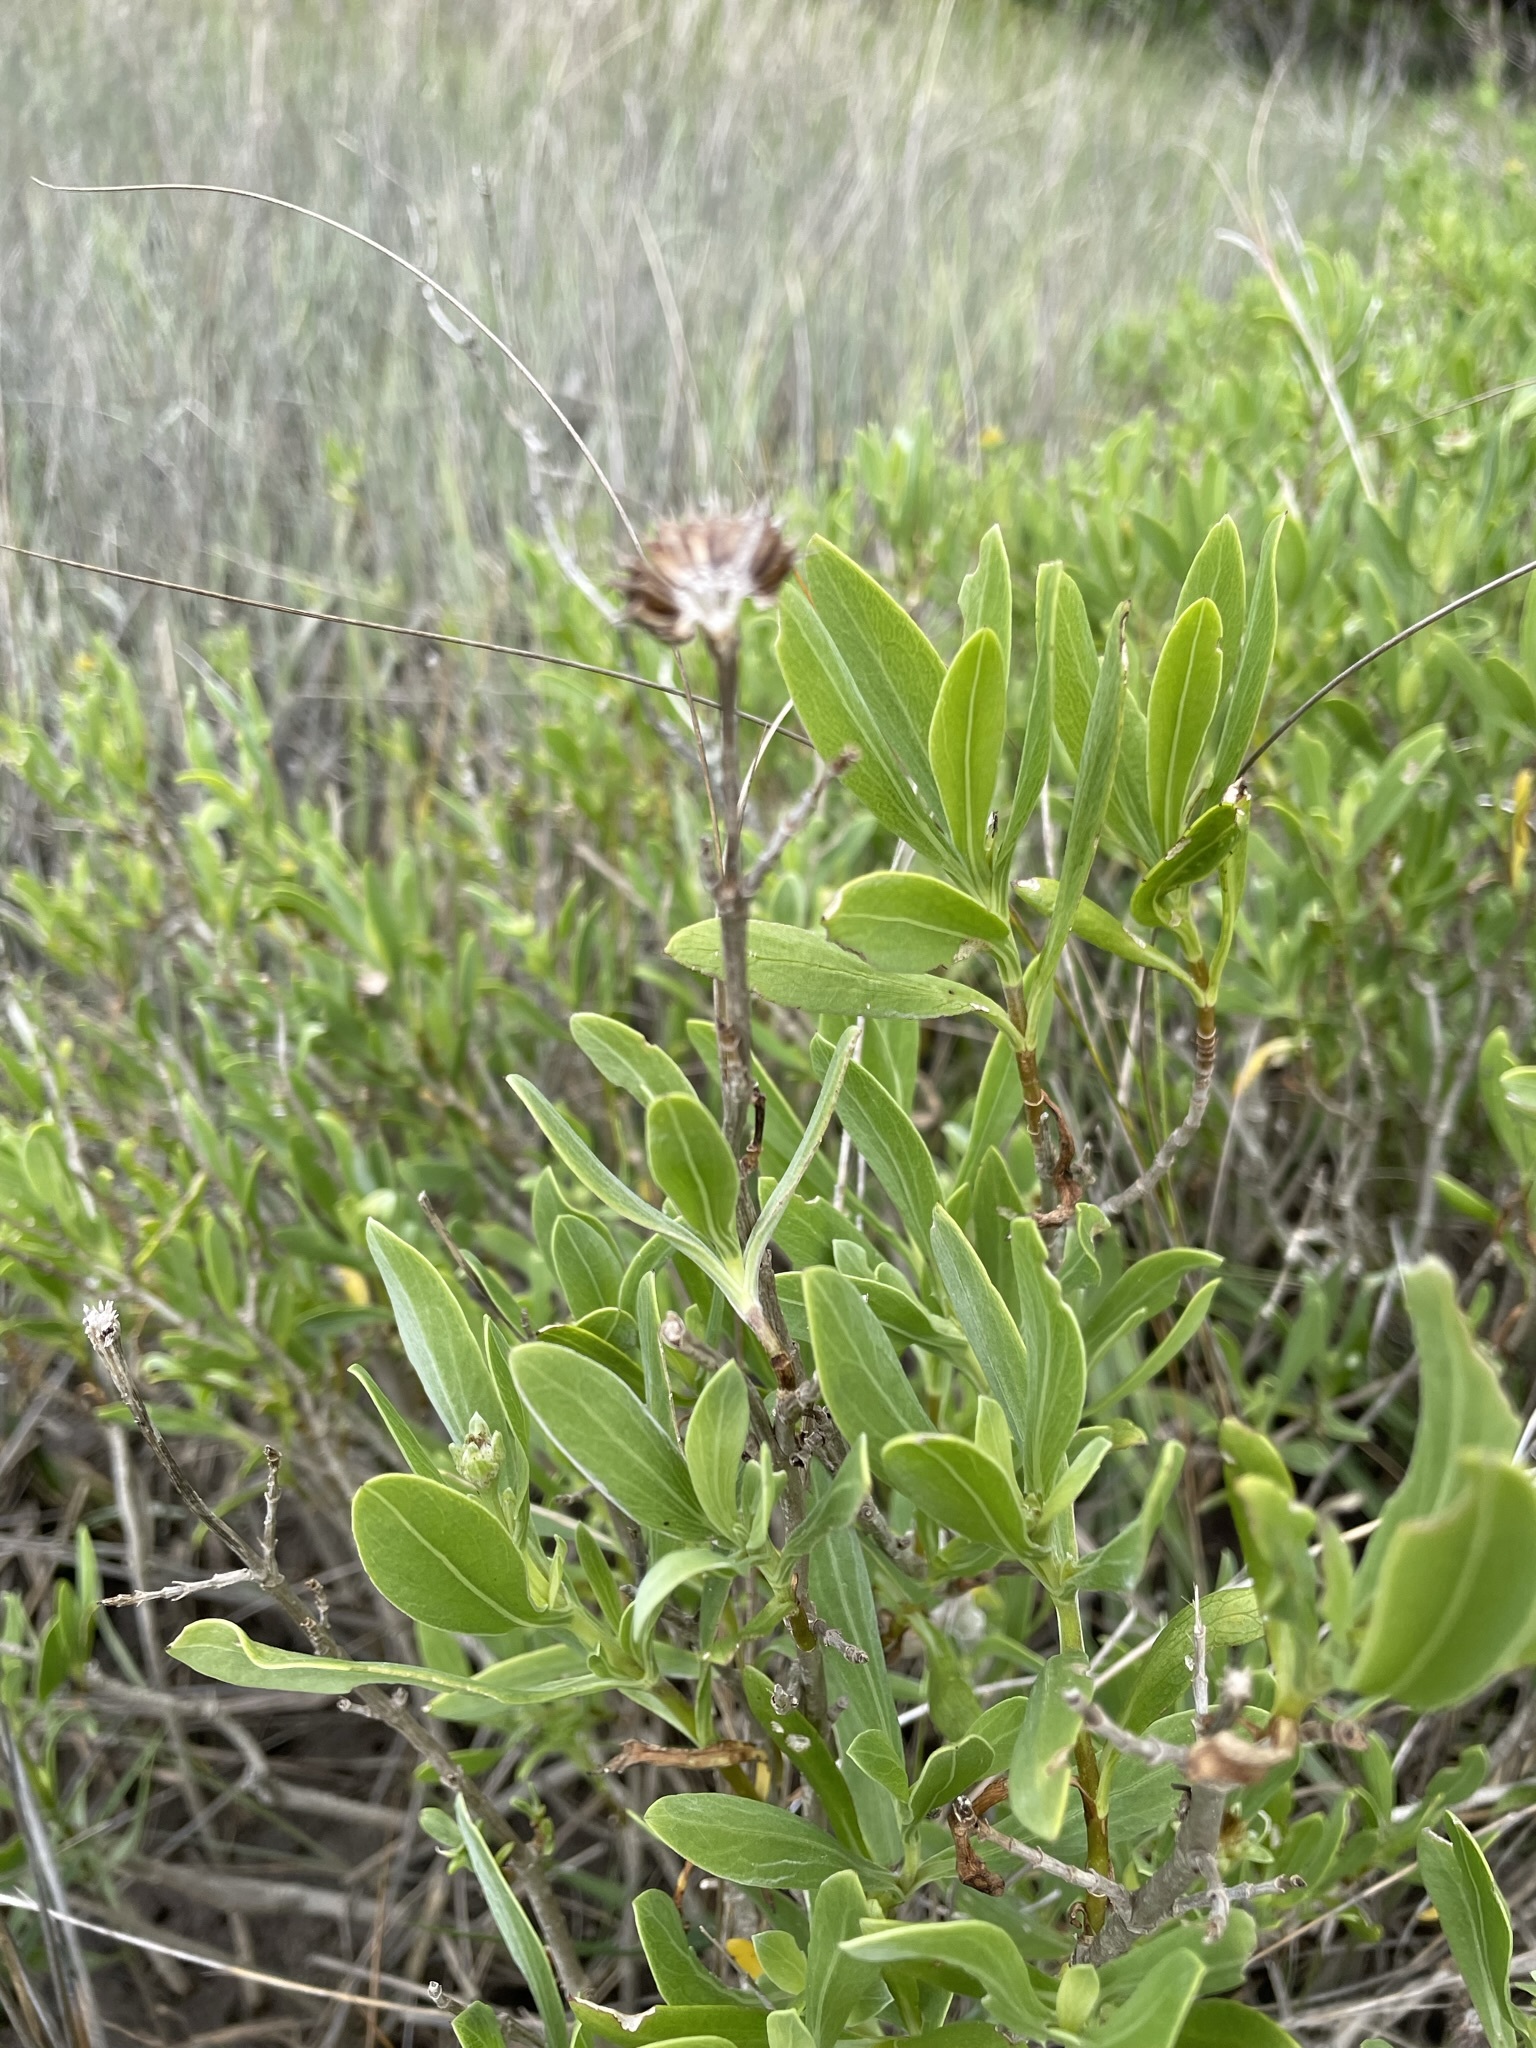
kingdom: Plantae
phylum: Tracheophyta
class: Magnoliopsida
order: Asterales
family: Asteraceae
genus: Borrichia
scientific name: Borrichia frutescens
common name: Sea oxeye
